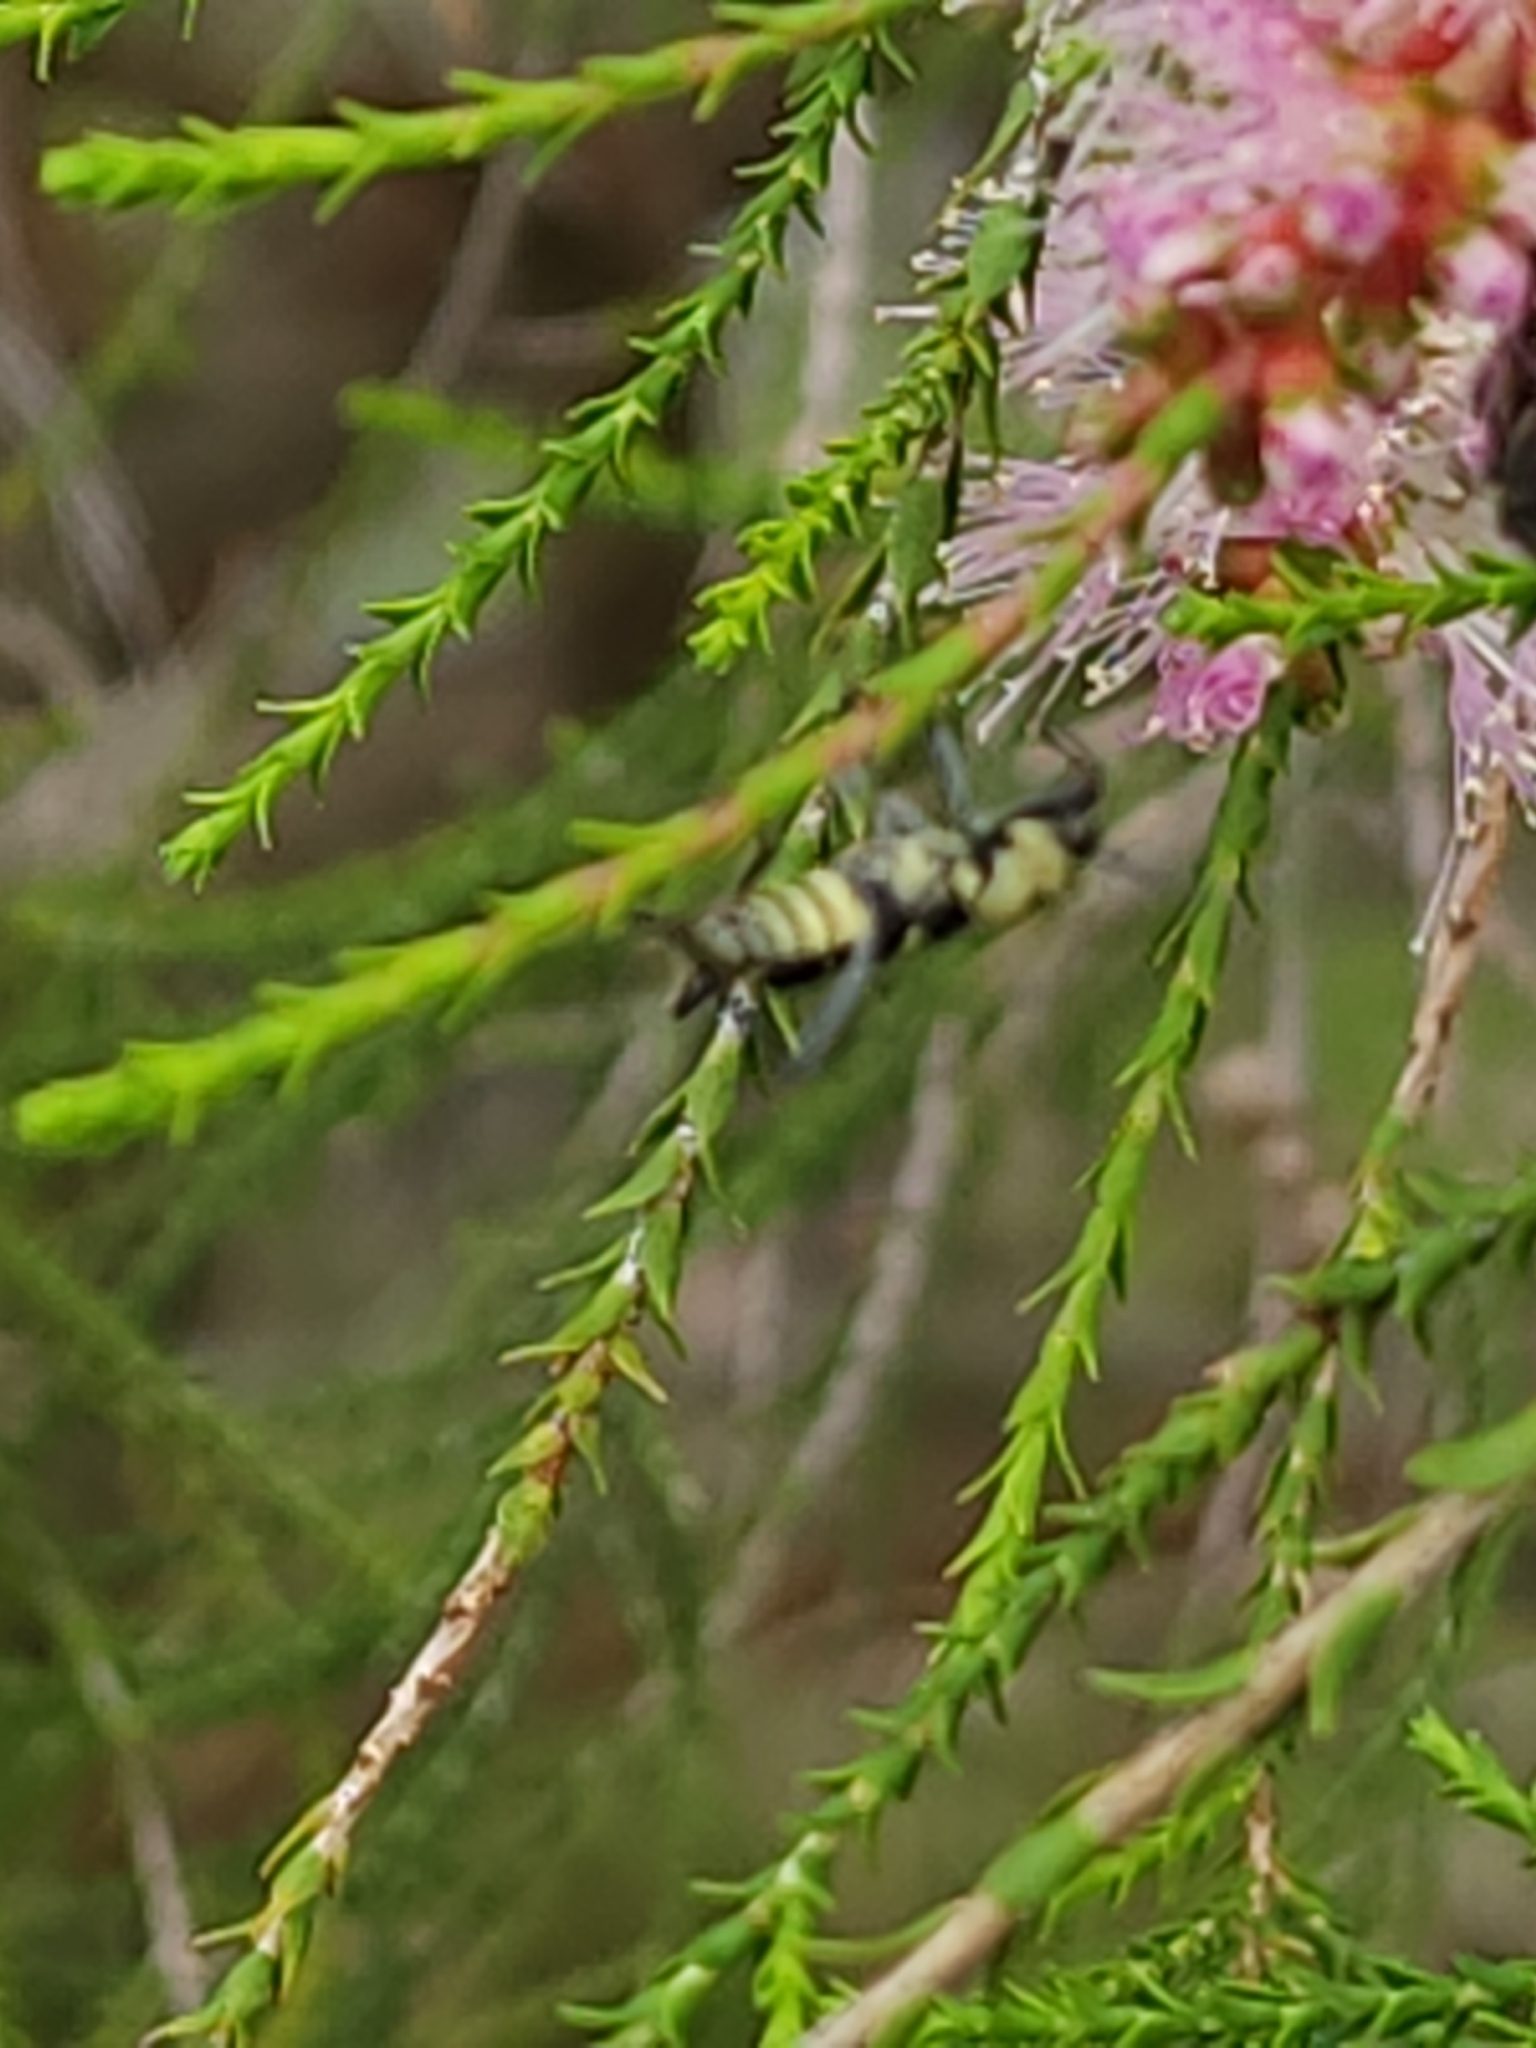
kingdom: Animalia
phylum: Arthropoda
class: Insecta
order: Coleoptera
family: Cerambycidae
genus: Clytus
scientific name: Clytus curtisi
